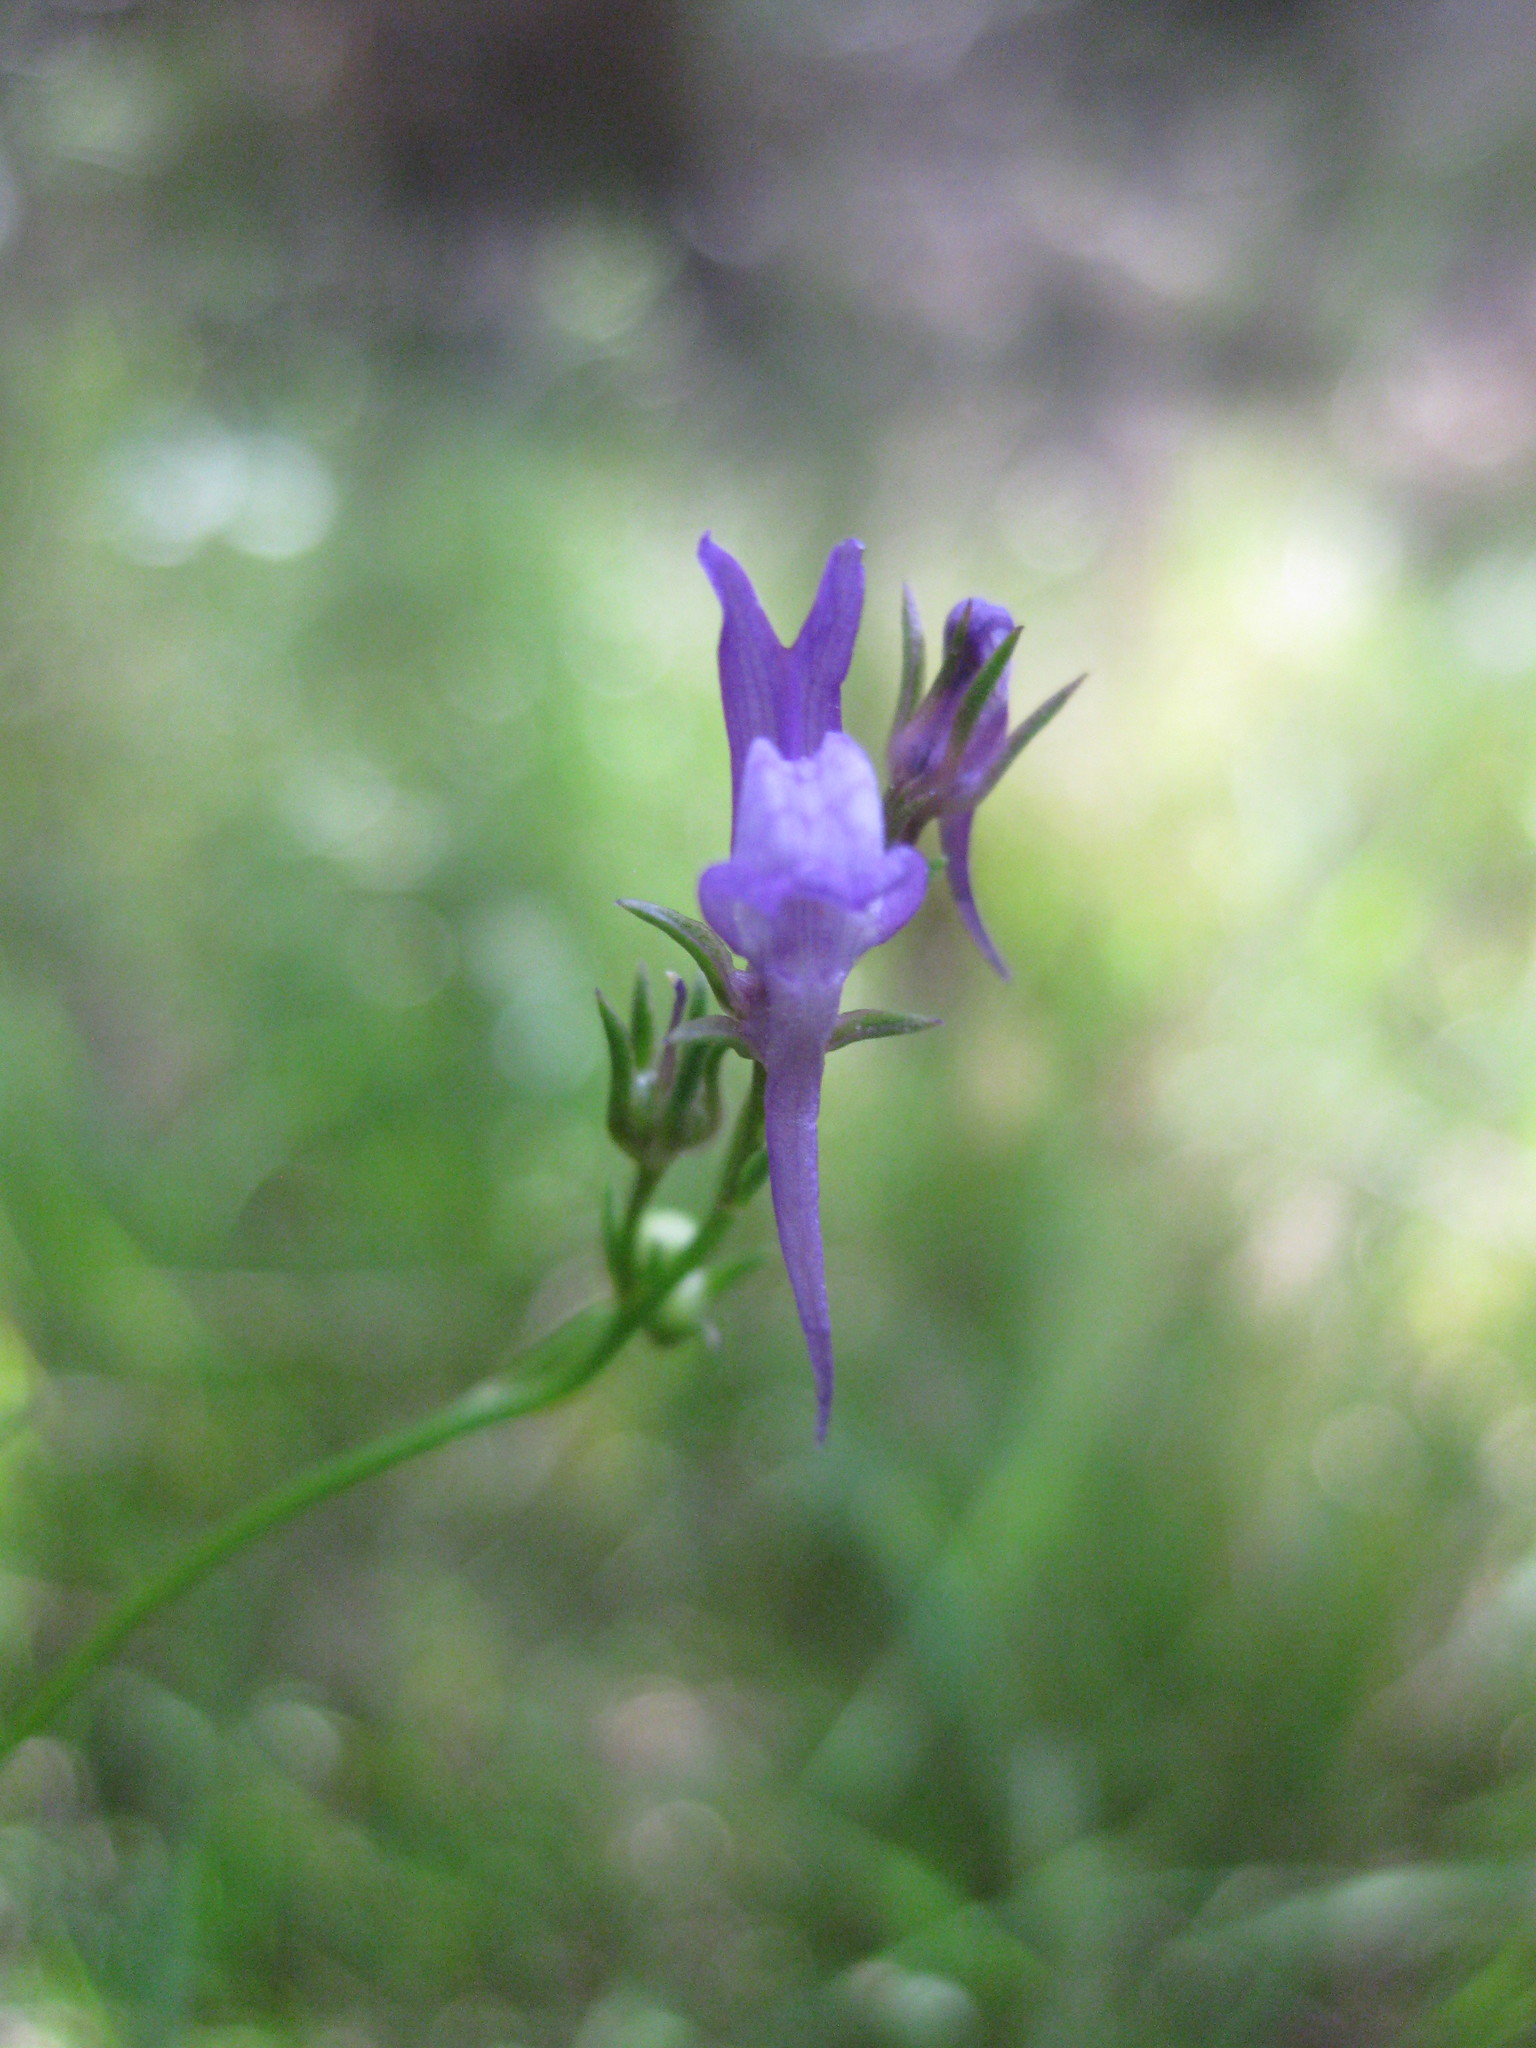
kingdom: Plantae
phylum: Tracheophyta
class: Magnoliopsida
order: Lamiales
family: Plantaginaceae
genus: Linaria
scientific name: Linaria pelisseriana
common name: Jersey toadflax
